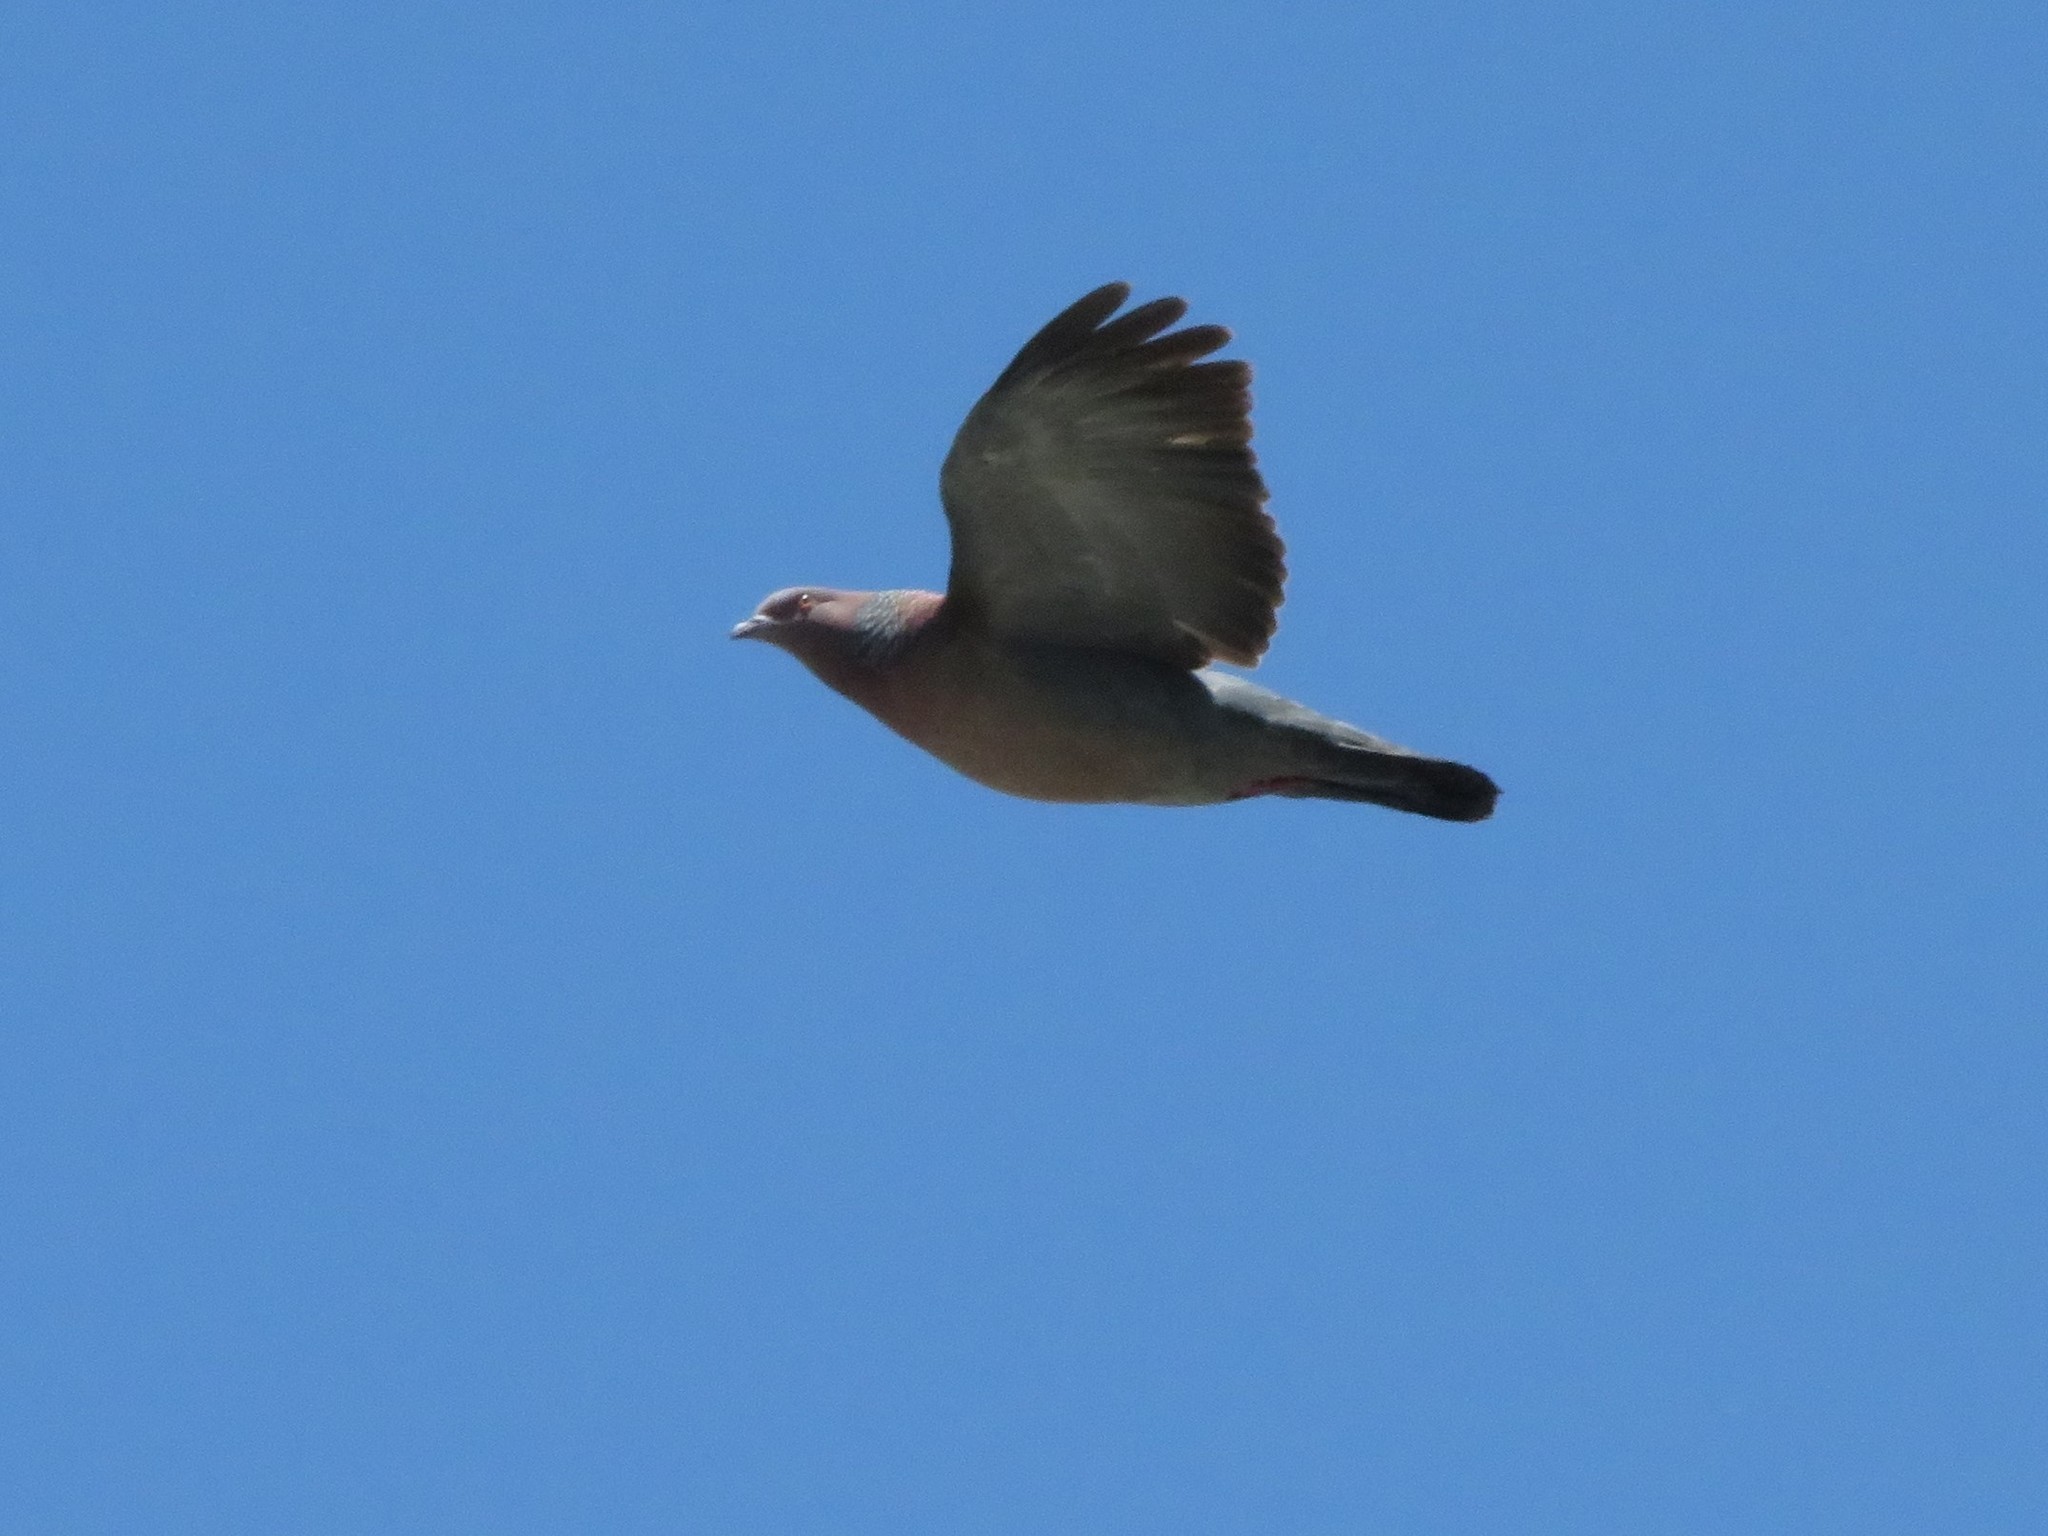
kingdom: Animalia
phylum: Chordata
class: Aves
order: Columbiformes
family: Columbidae
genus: Patagioenas
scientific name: Patagioenas picazuro
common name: Picazuro pigeon
